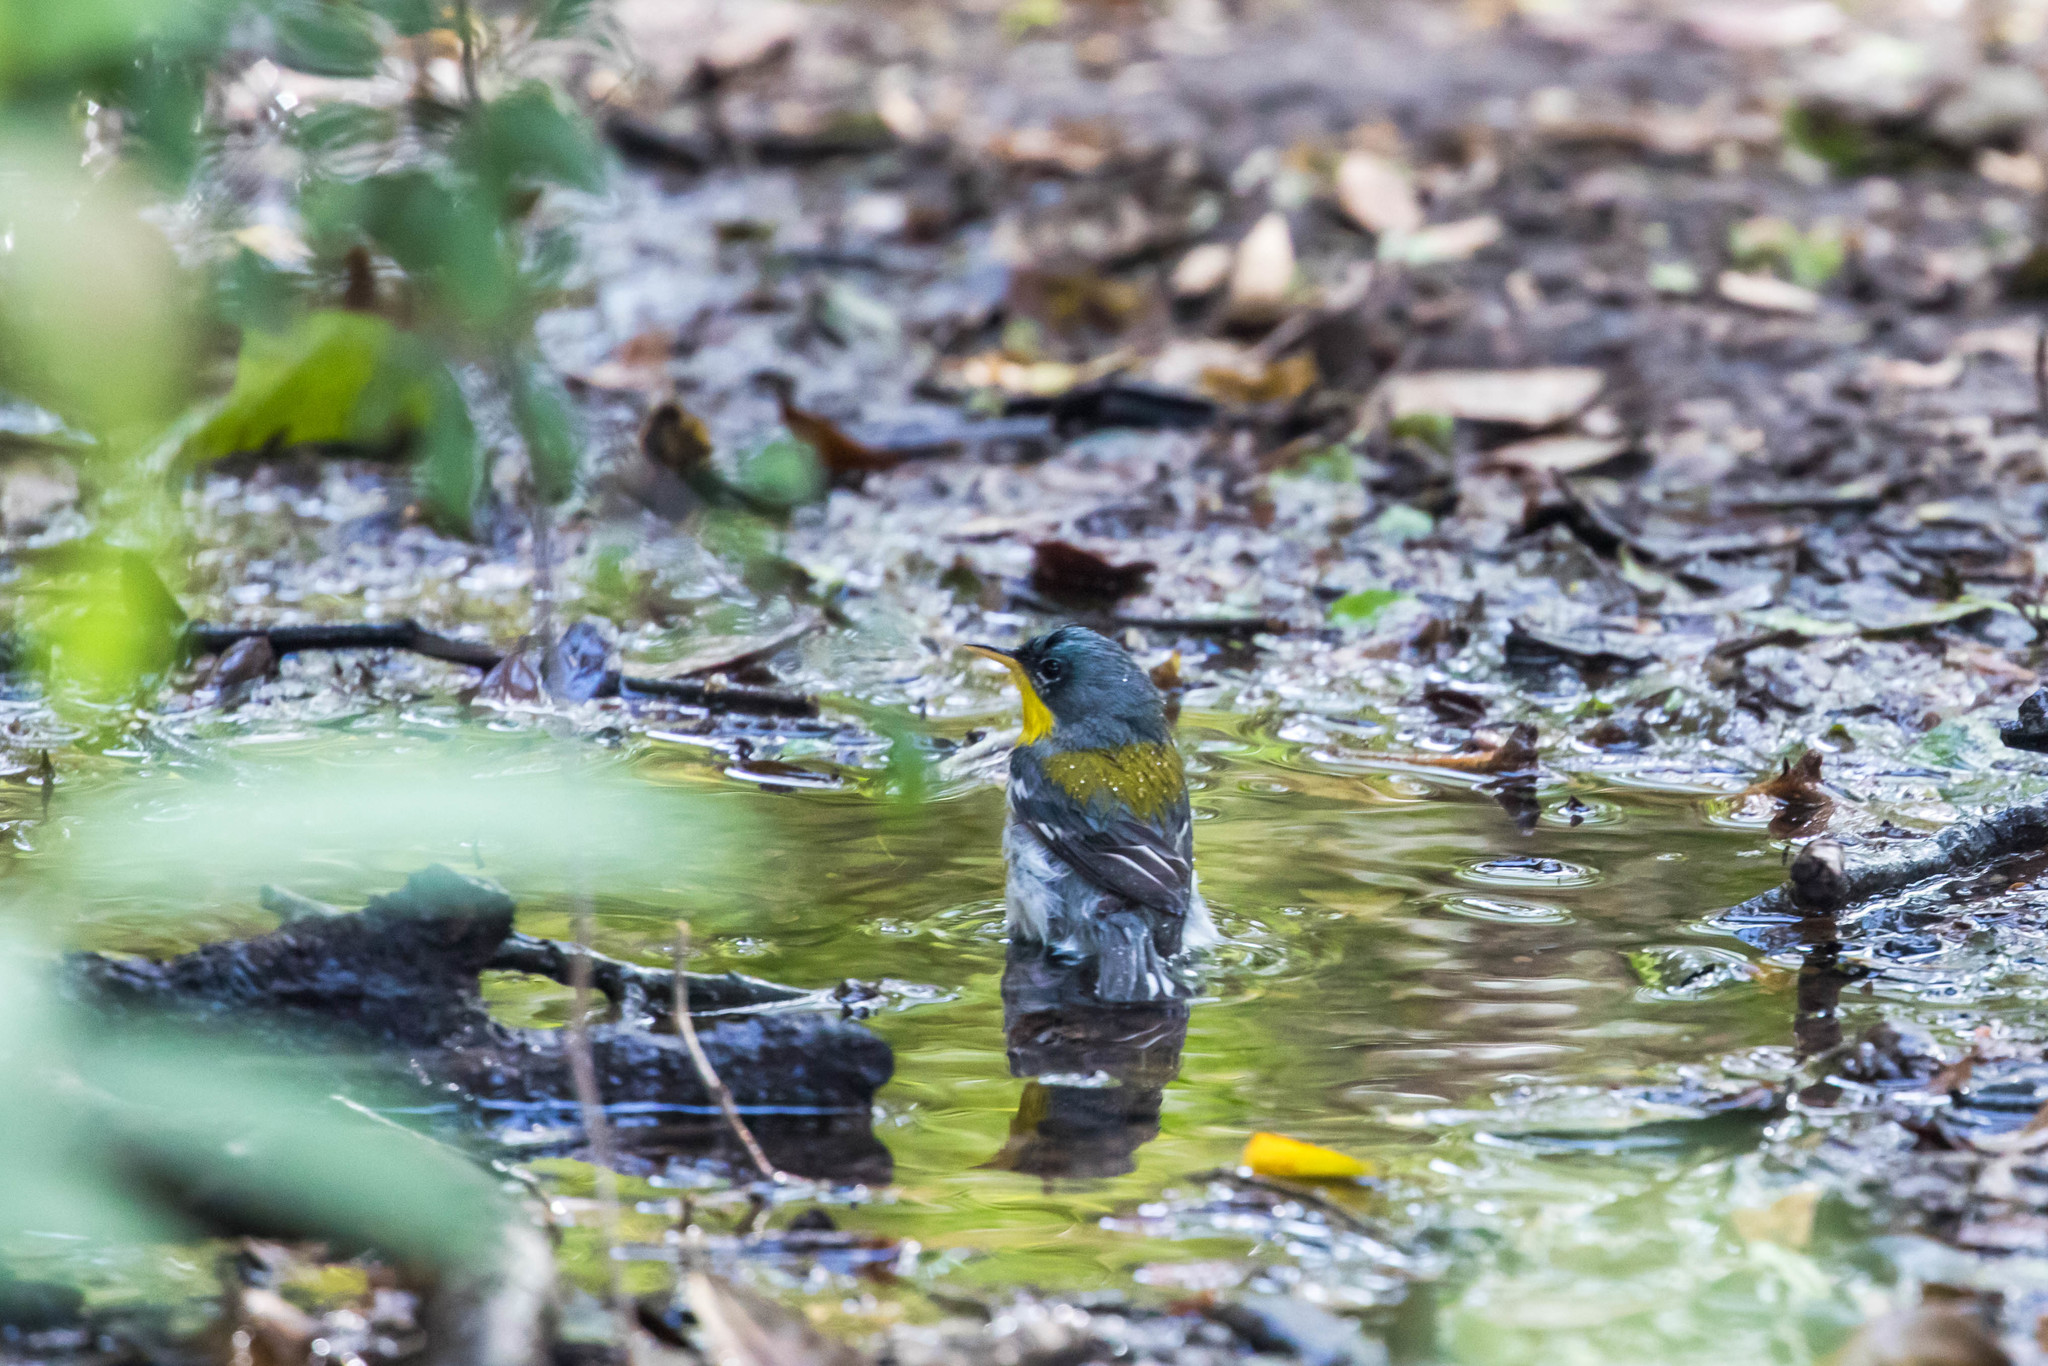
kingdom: Animalia
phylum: Chordata
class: Aves
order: Passeriformes
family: Parulidae
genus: Setophaga
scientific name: Setophaga pitiayumi
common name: Tropical parula
